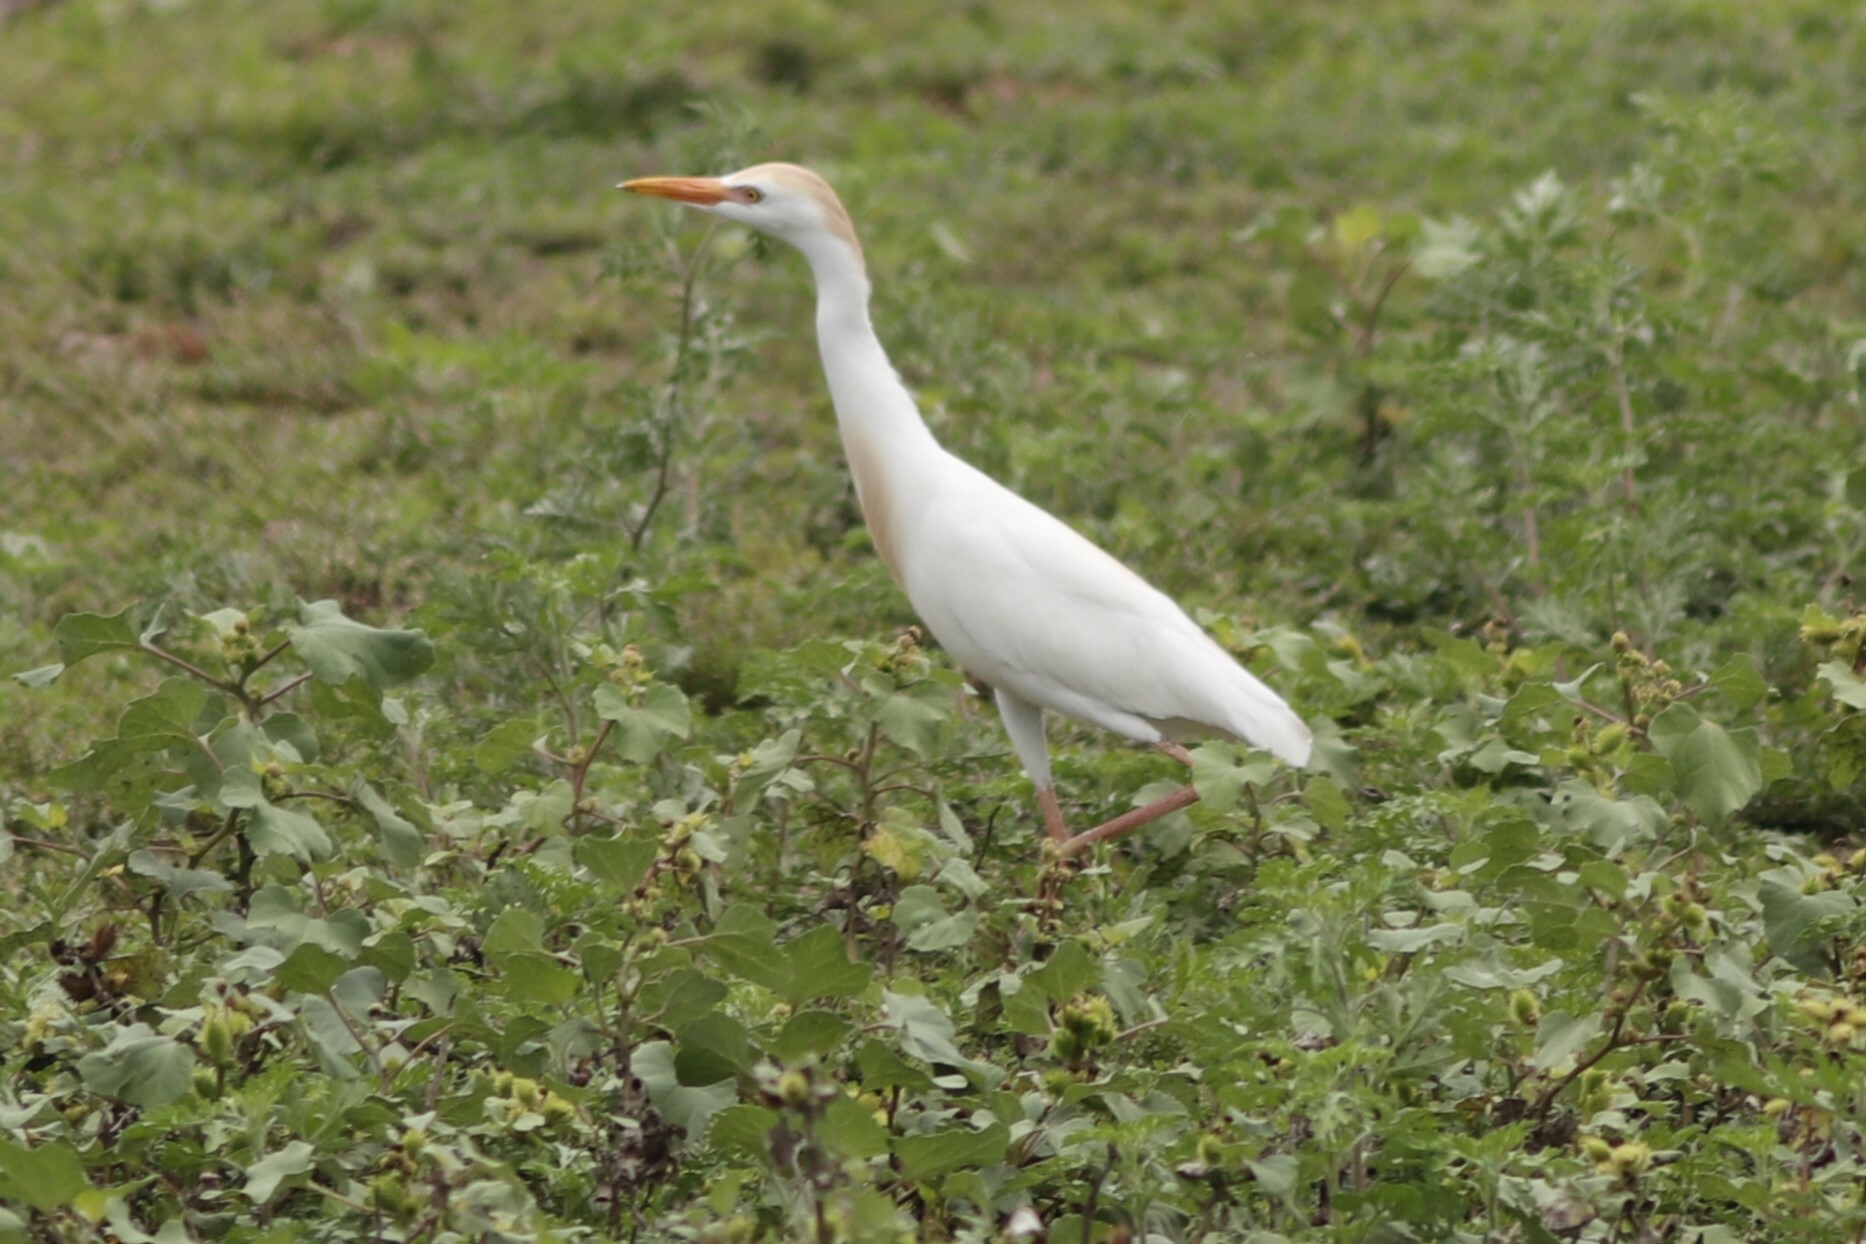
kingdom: Animalia
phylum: Chordata
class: Aves
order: Pelecaniformes
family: Ardeidae
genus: Bubulcus
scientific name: Bubulcus ibis
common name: Cattle egret
